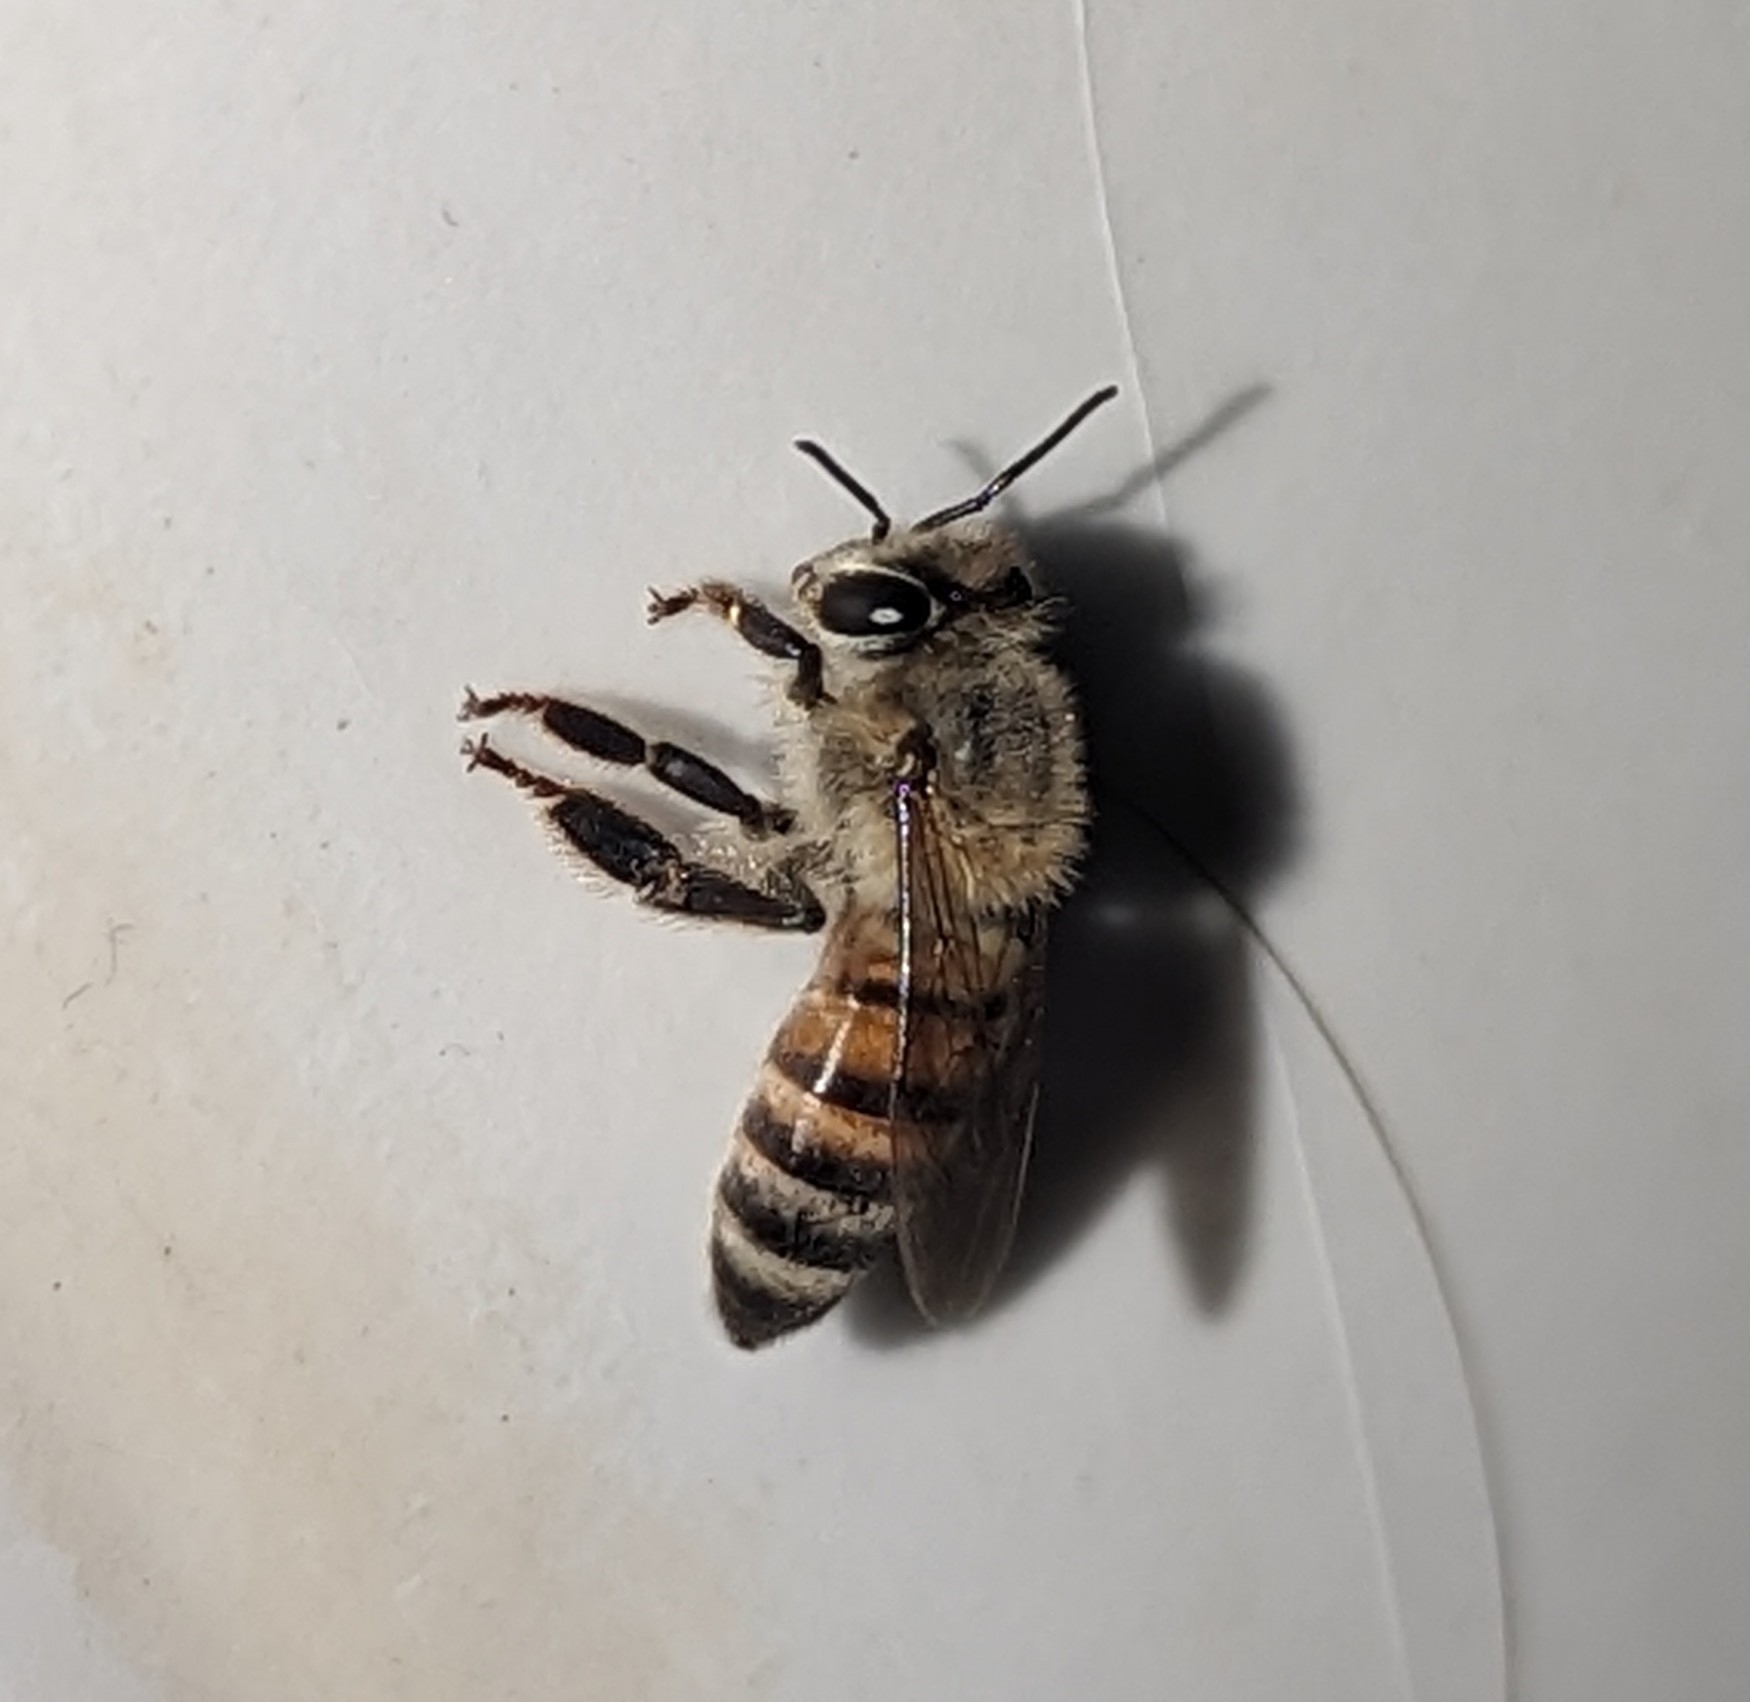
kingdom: Animalia
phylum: Arthropoda
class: Insecta
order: Hymenoptera
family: Apidae
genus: Apis
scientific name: Apis mellifera
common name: Honey bee
